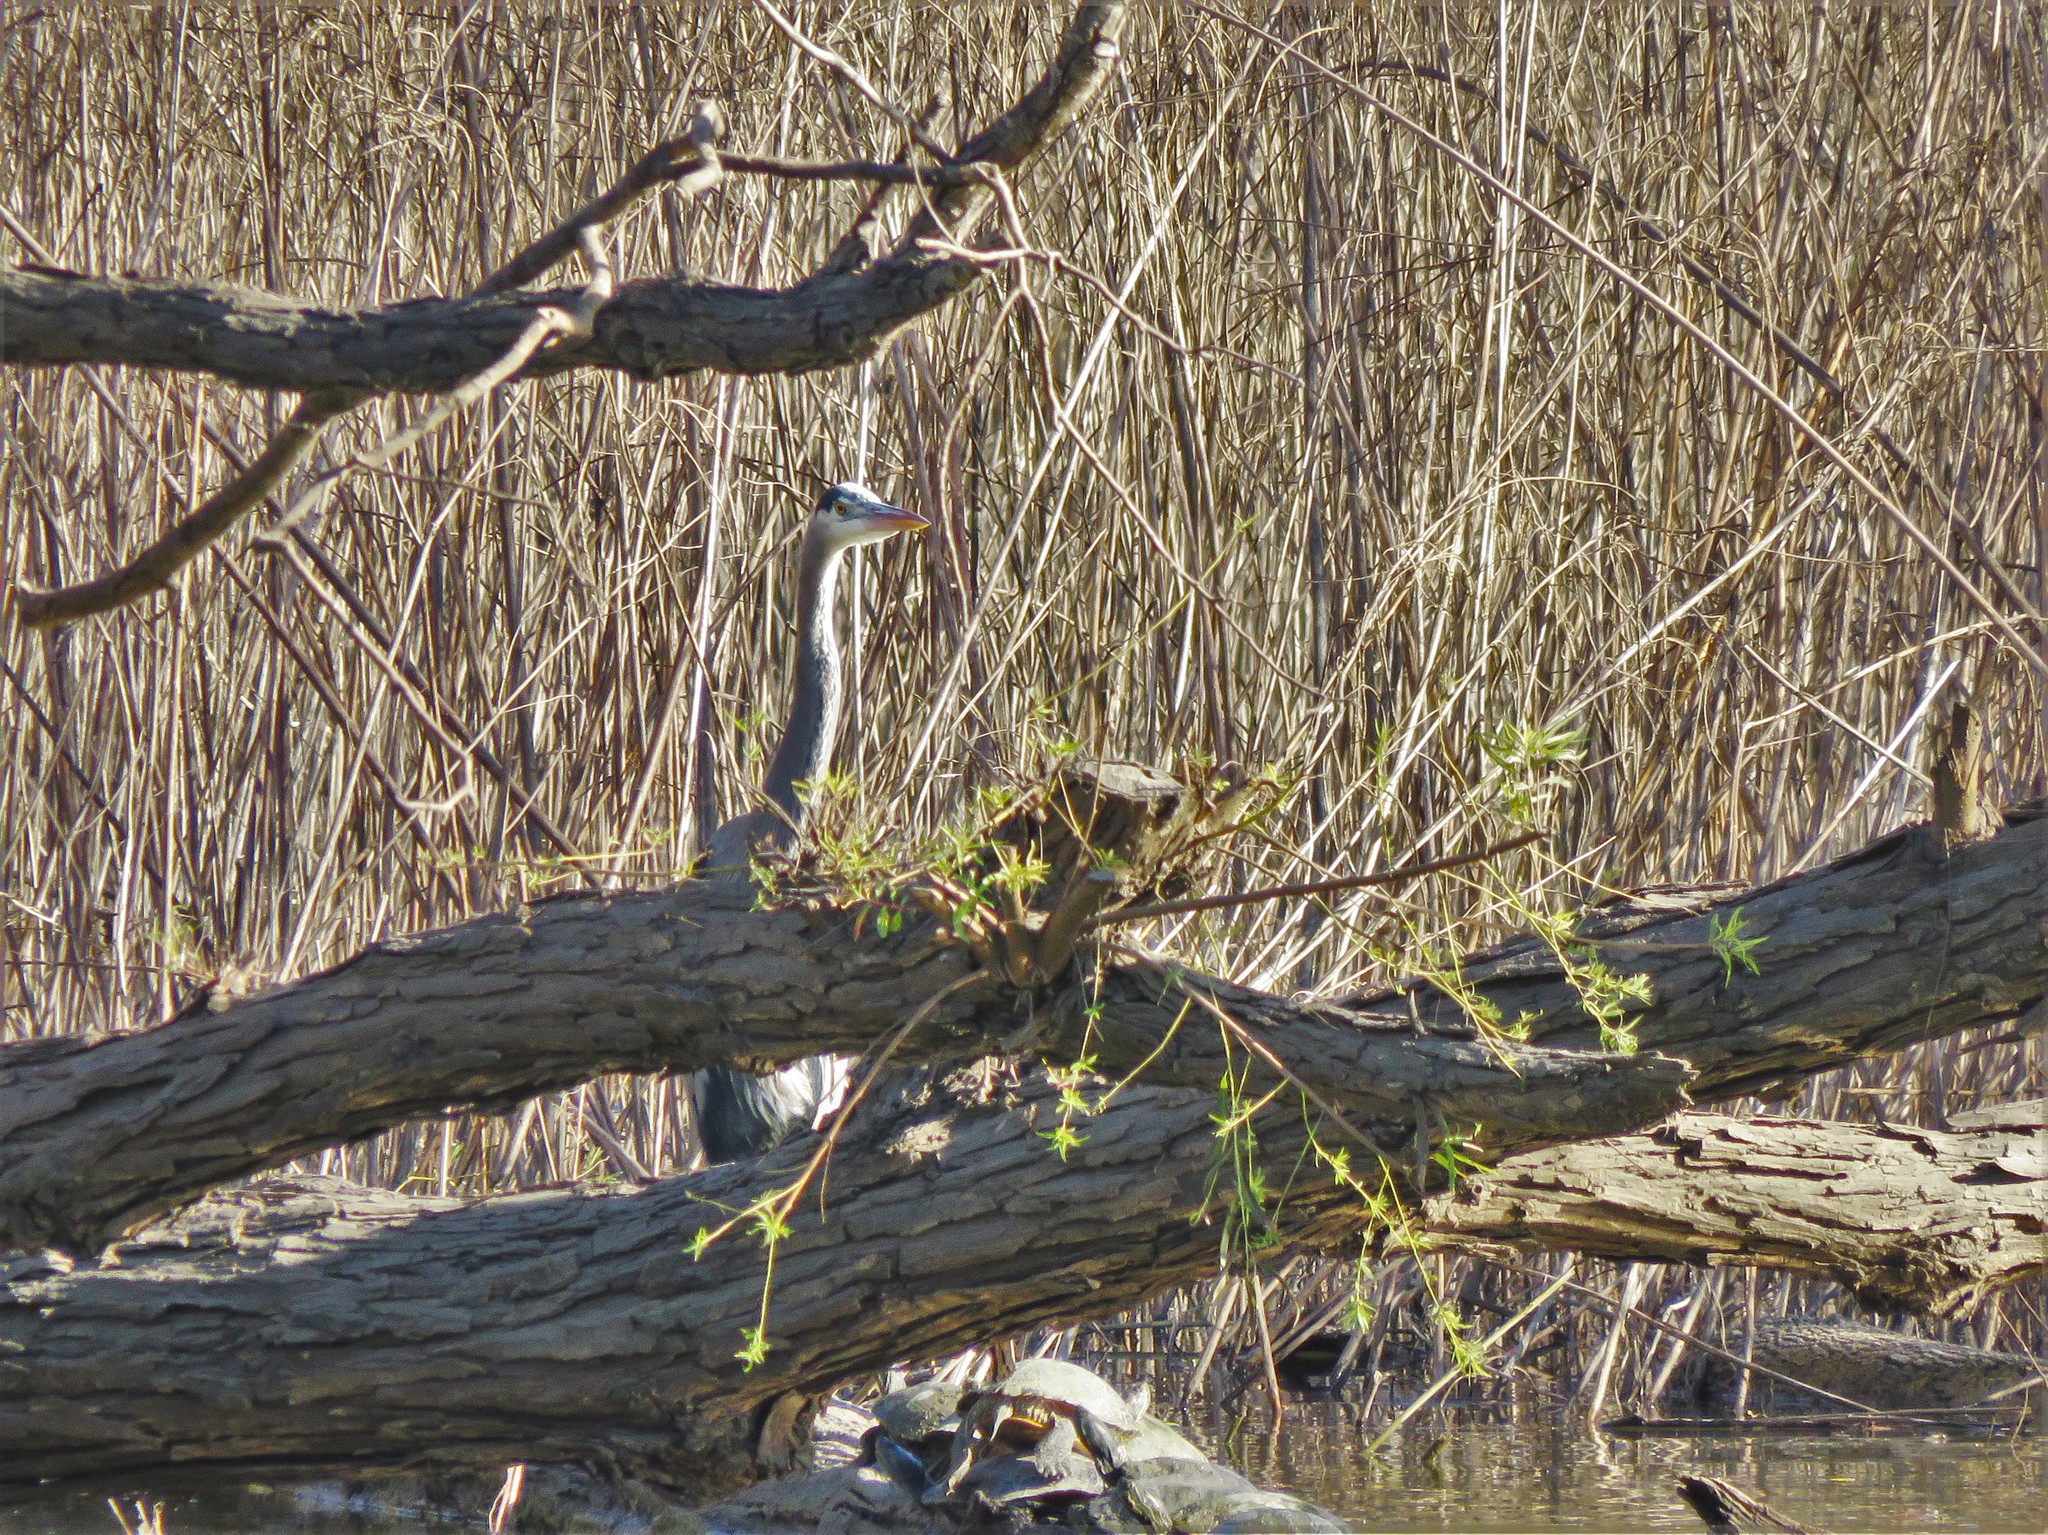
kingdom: Animalia
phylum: Chordata
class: Aves
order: Pelecaniformes
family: Ardeidae
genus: Ardea
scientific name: Ardea herodias
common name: Great blue heron
